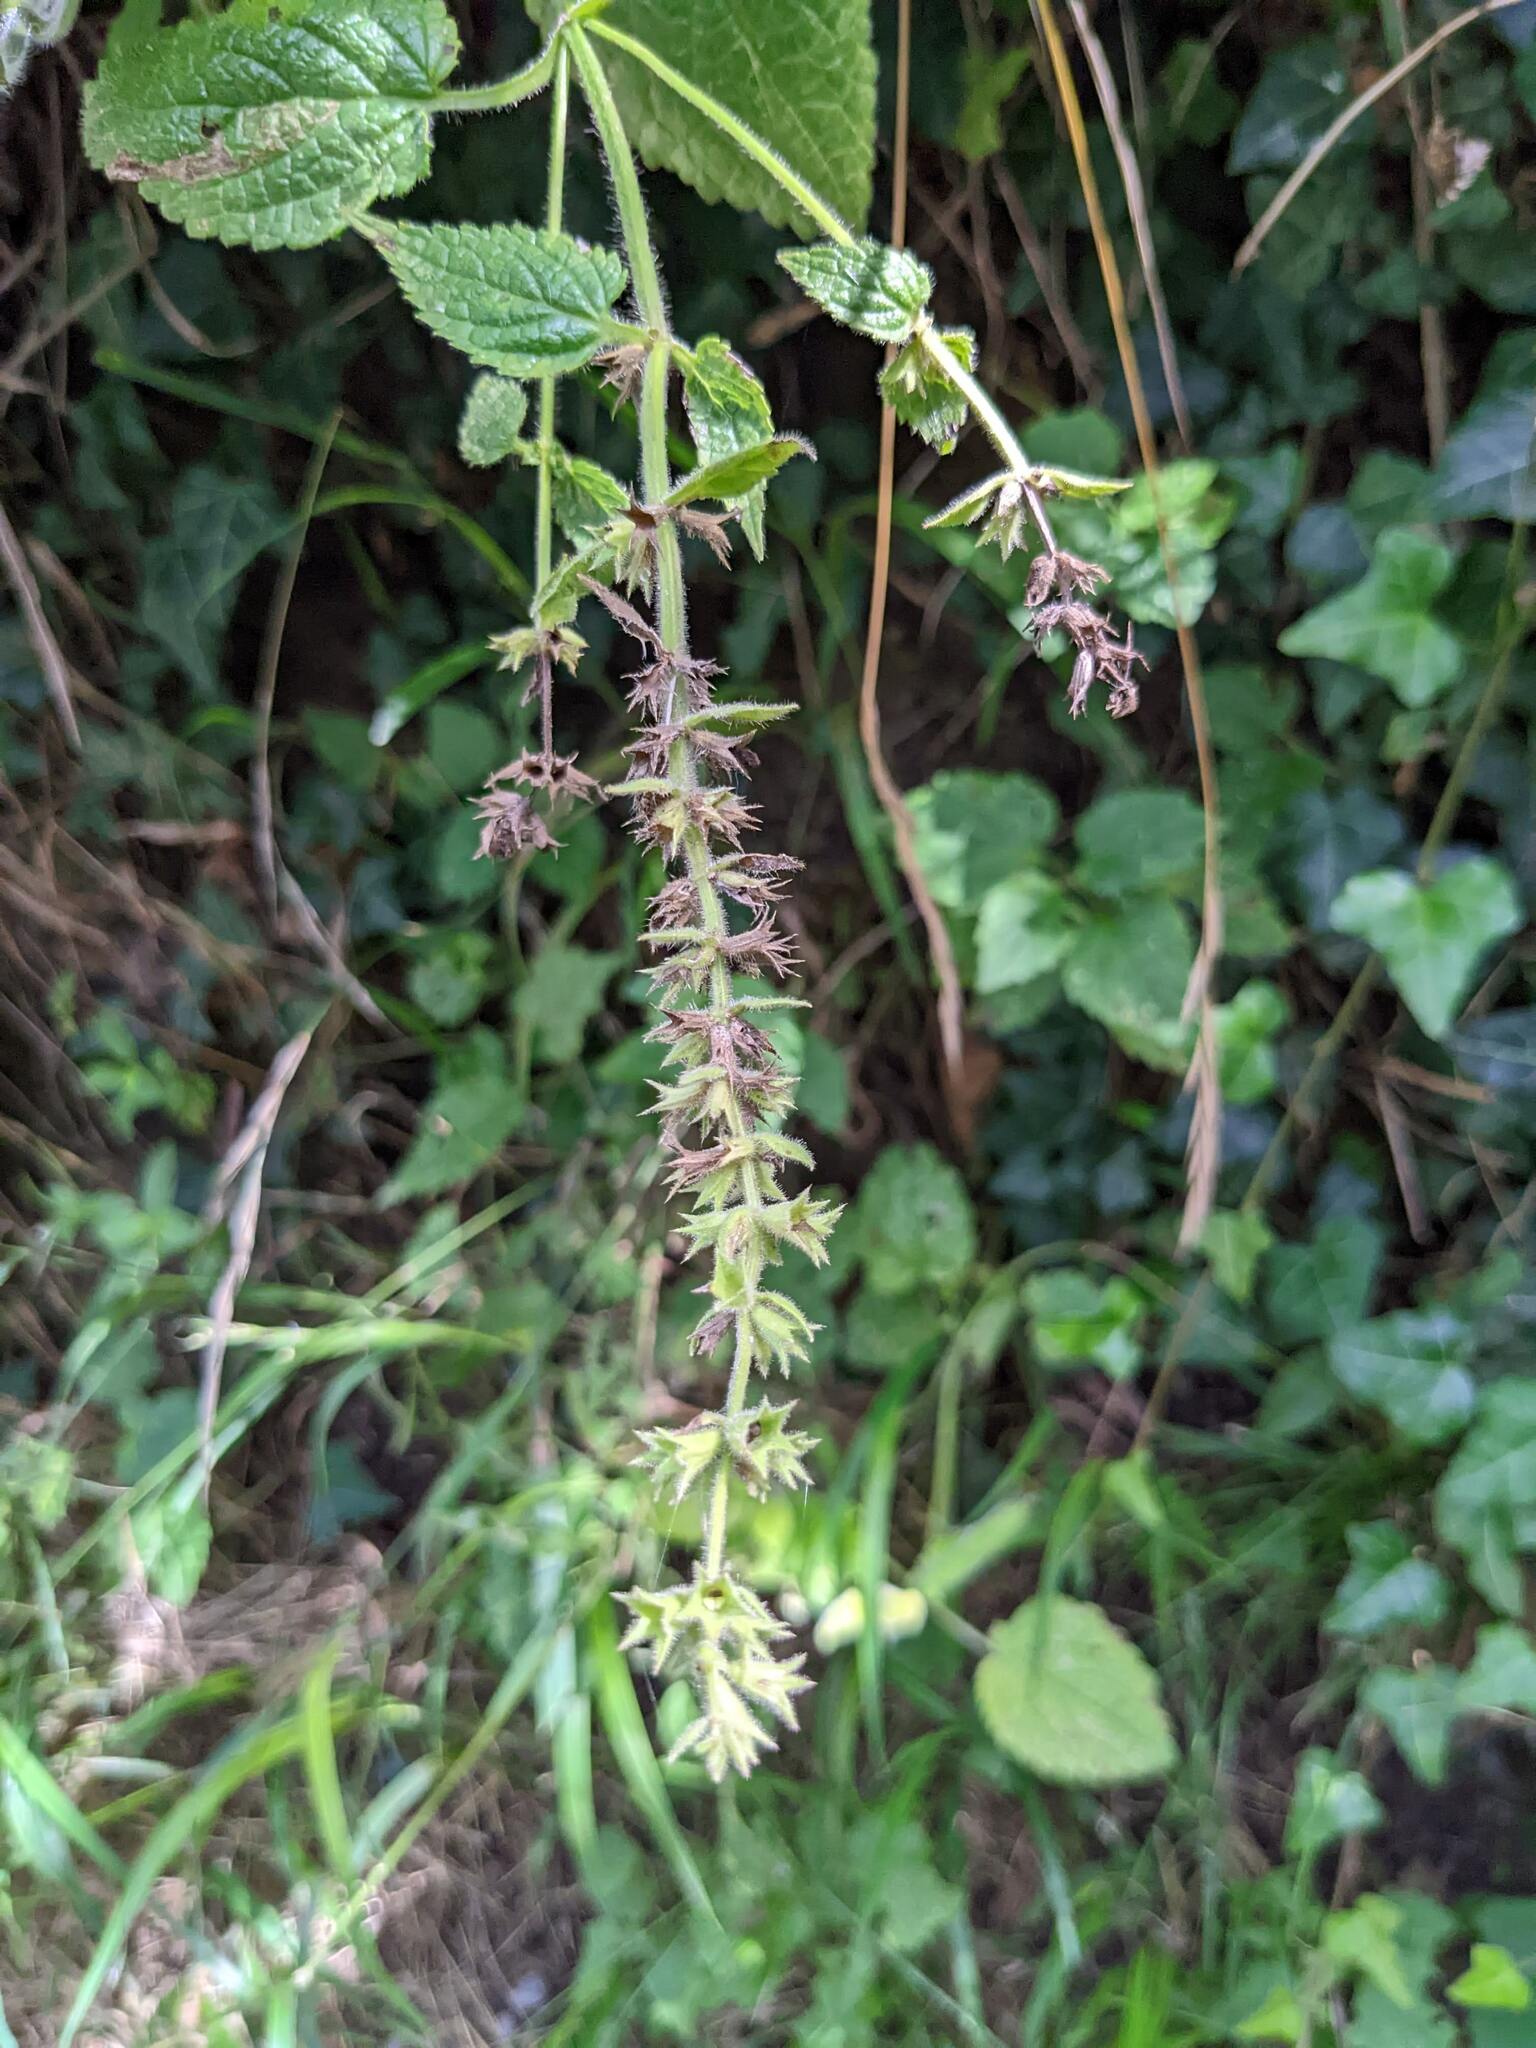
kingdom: Plantae
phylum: Tracheophyta
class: Magnoliopsida
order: Lamiales
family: Lamiaceae
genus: Stachys
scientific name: Stachys sylvatica
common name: Hedge woundwort
